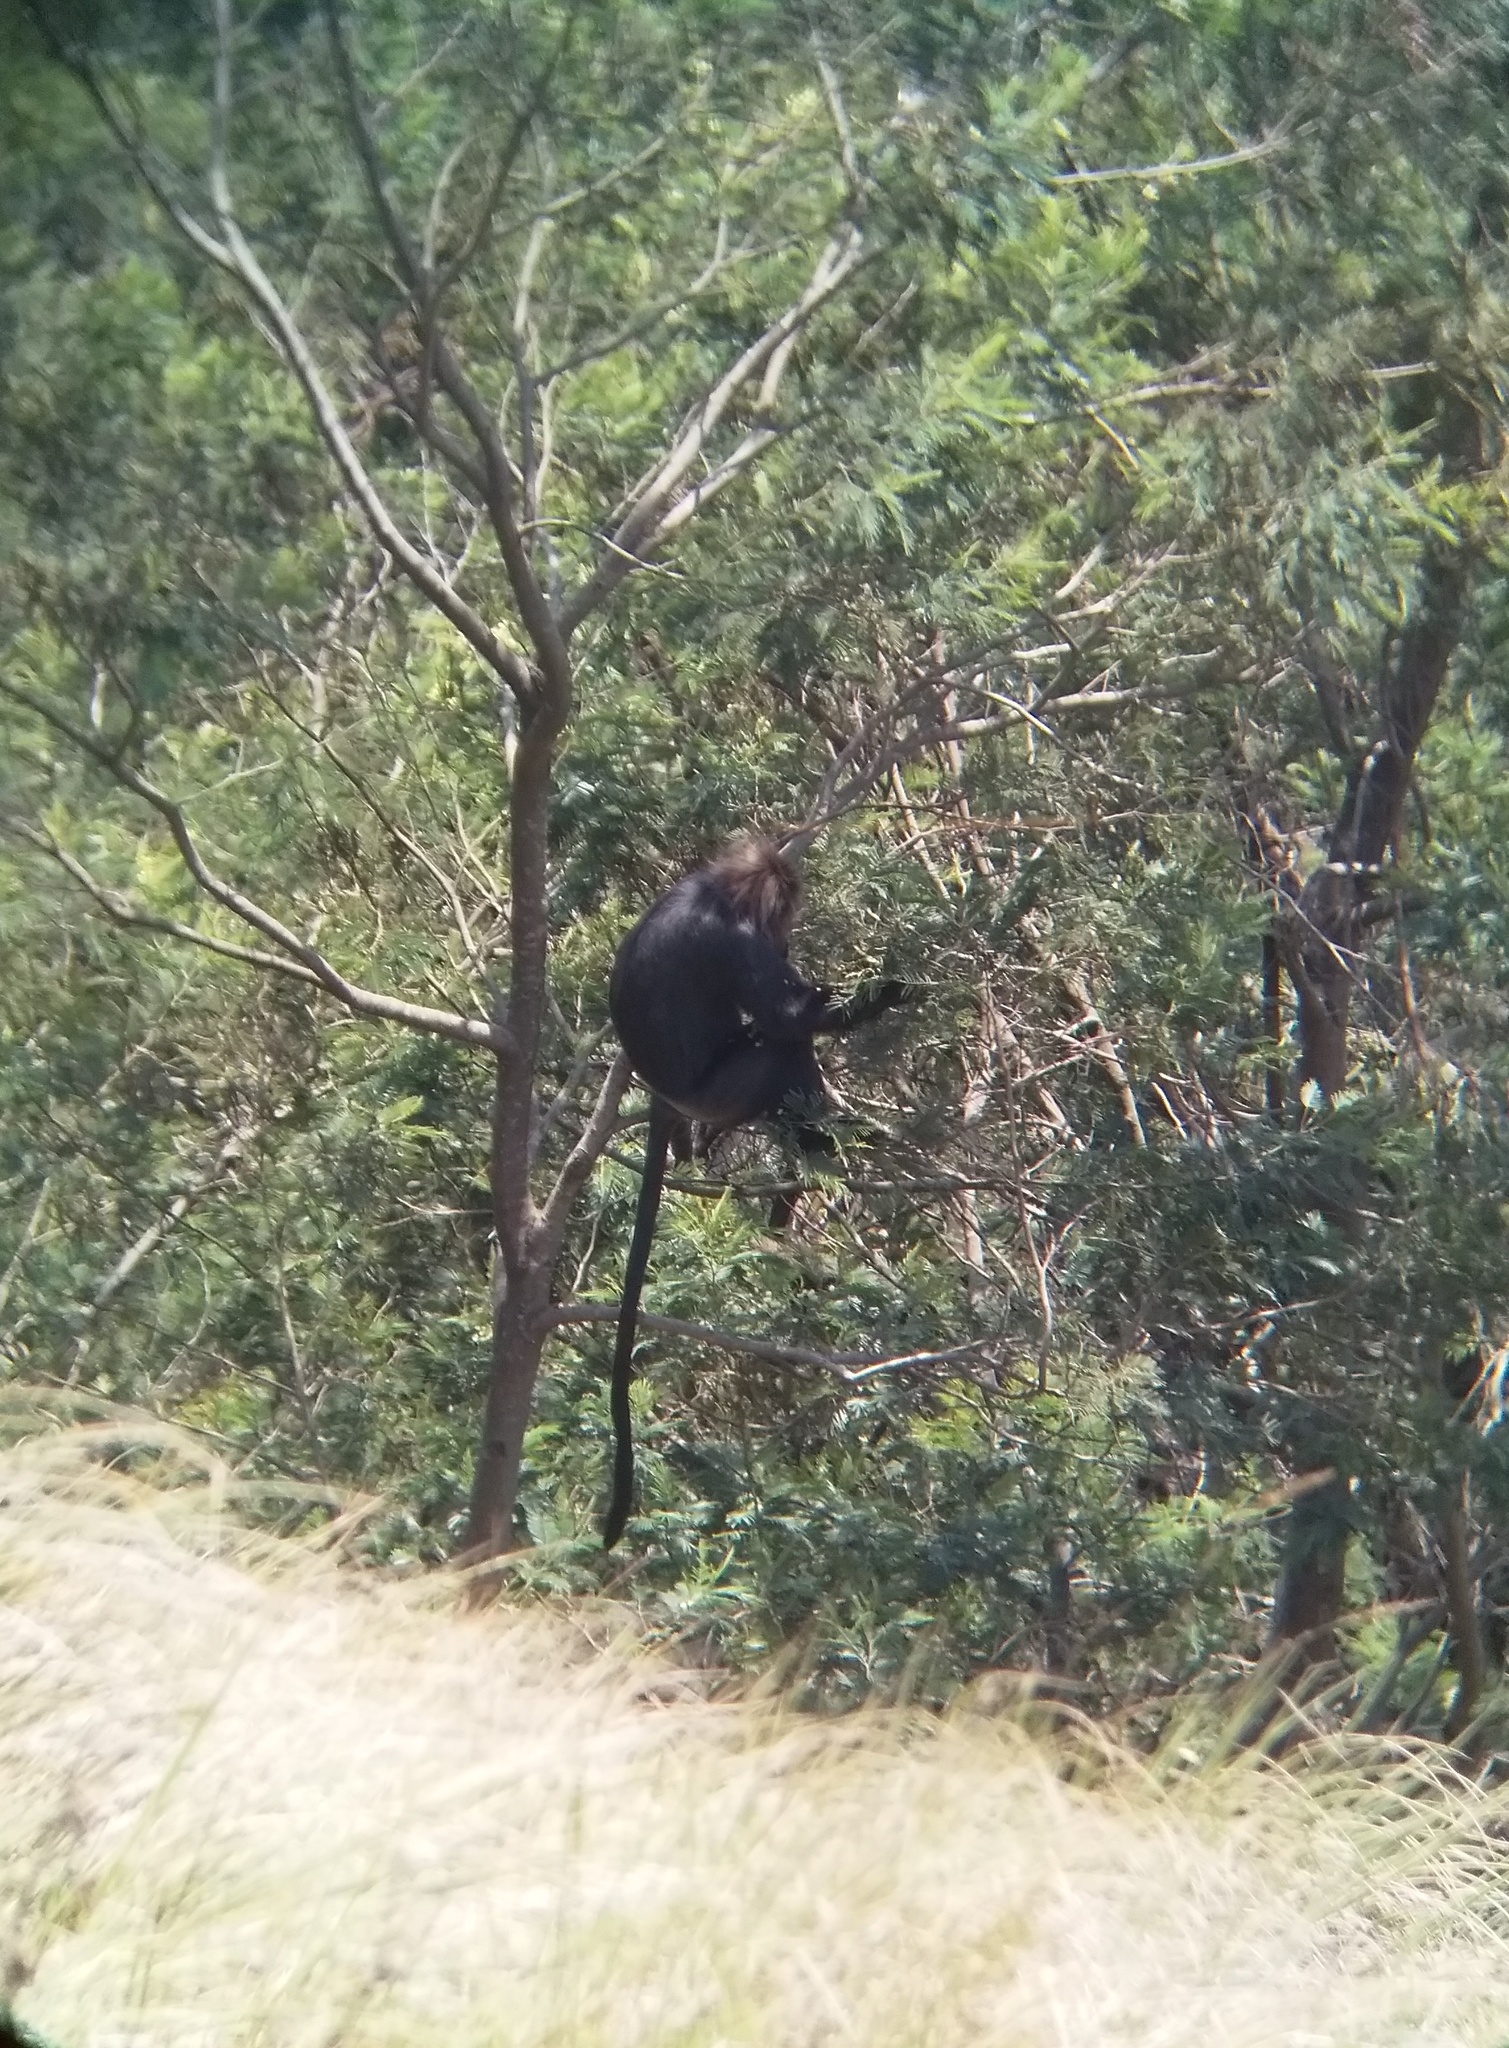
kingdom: Animalia
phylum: Chordata
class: Mammalia
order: Primates
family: Cercopithecidae
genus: Semnopithecus
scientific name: Semnopithecus johnii
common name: Nilgiri langur
